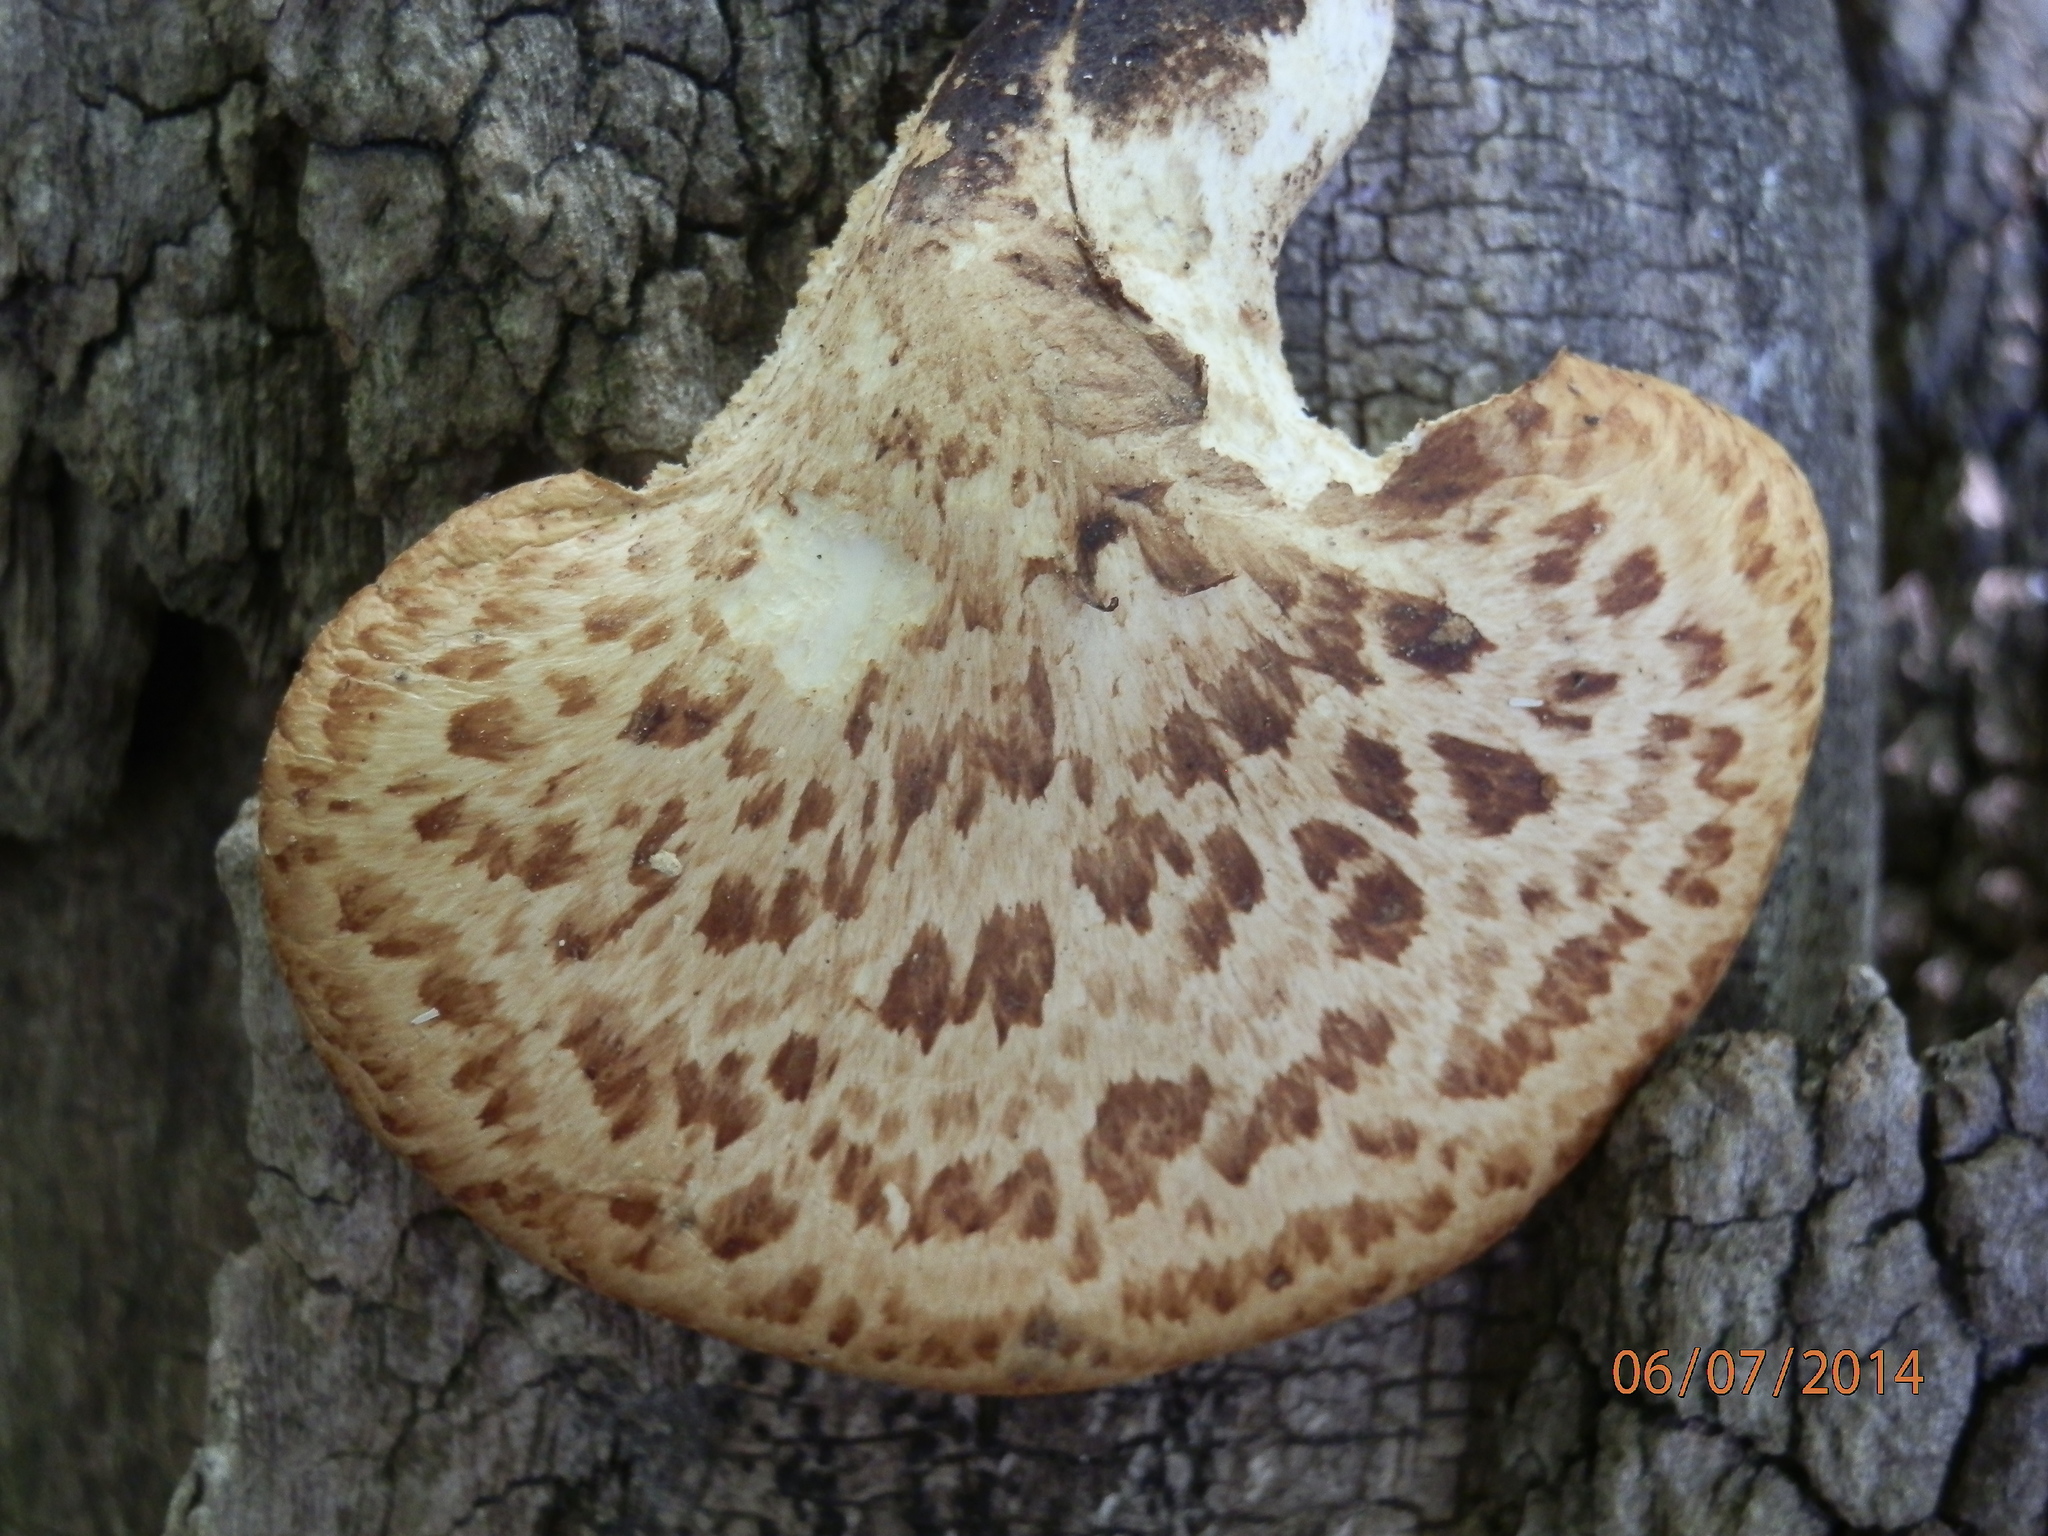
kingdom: Fungi
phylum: Basidiomycota
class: Agaricomycetes
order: Polyporales
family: Polyporaceae
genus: Cerioporus
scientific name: Cerioporus squamosus
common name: Dryad's saddle
